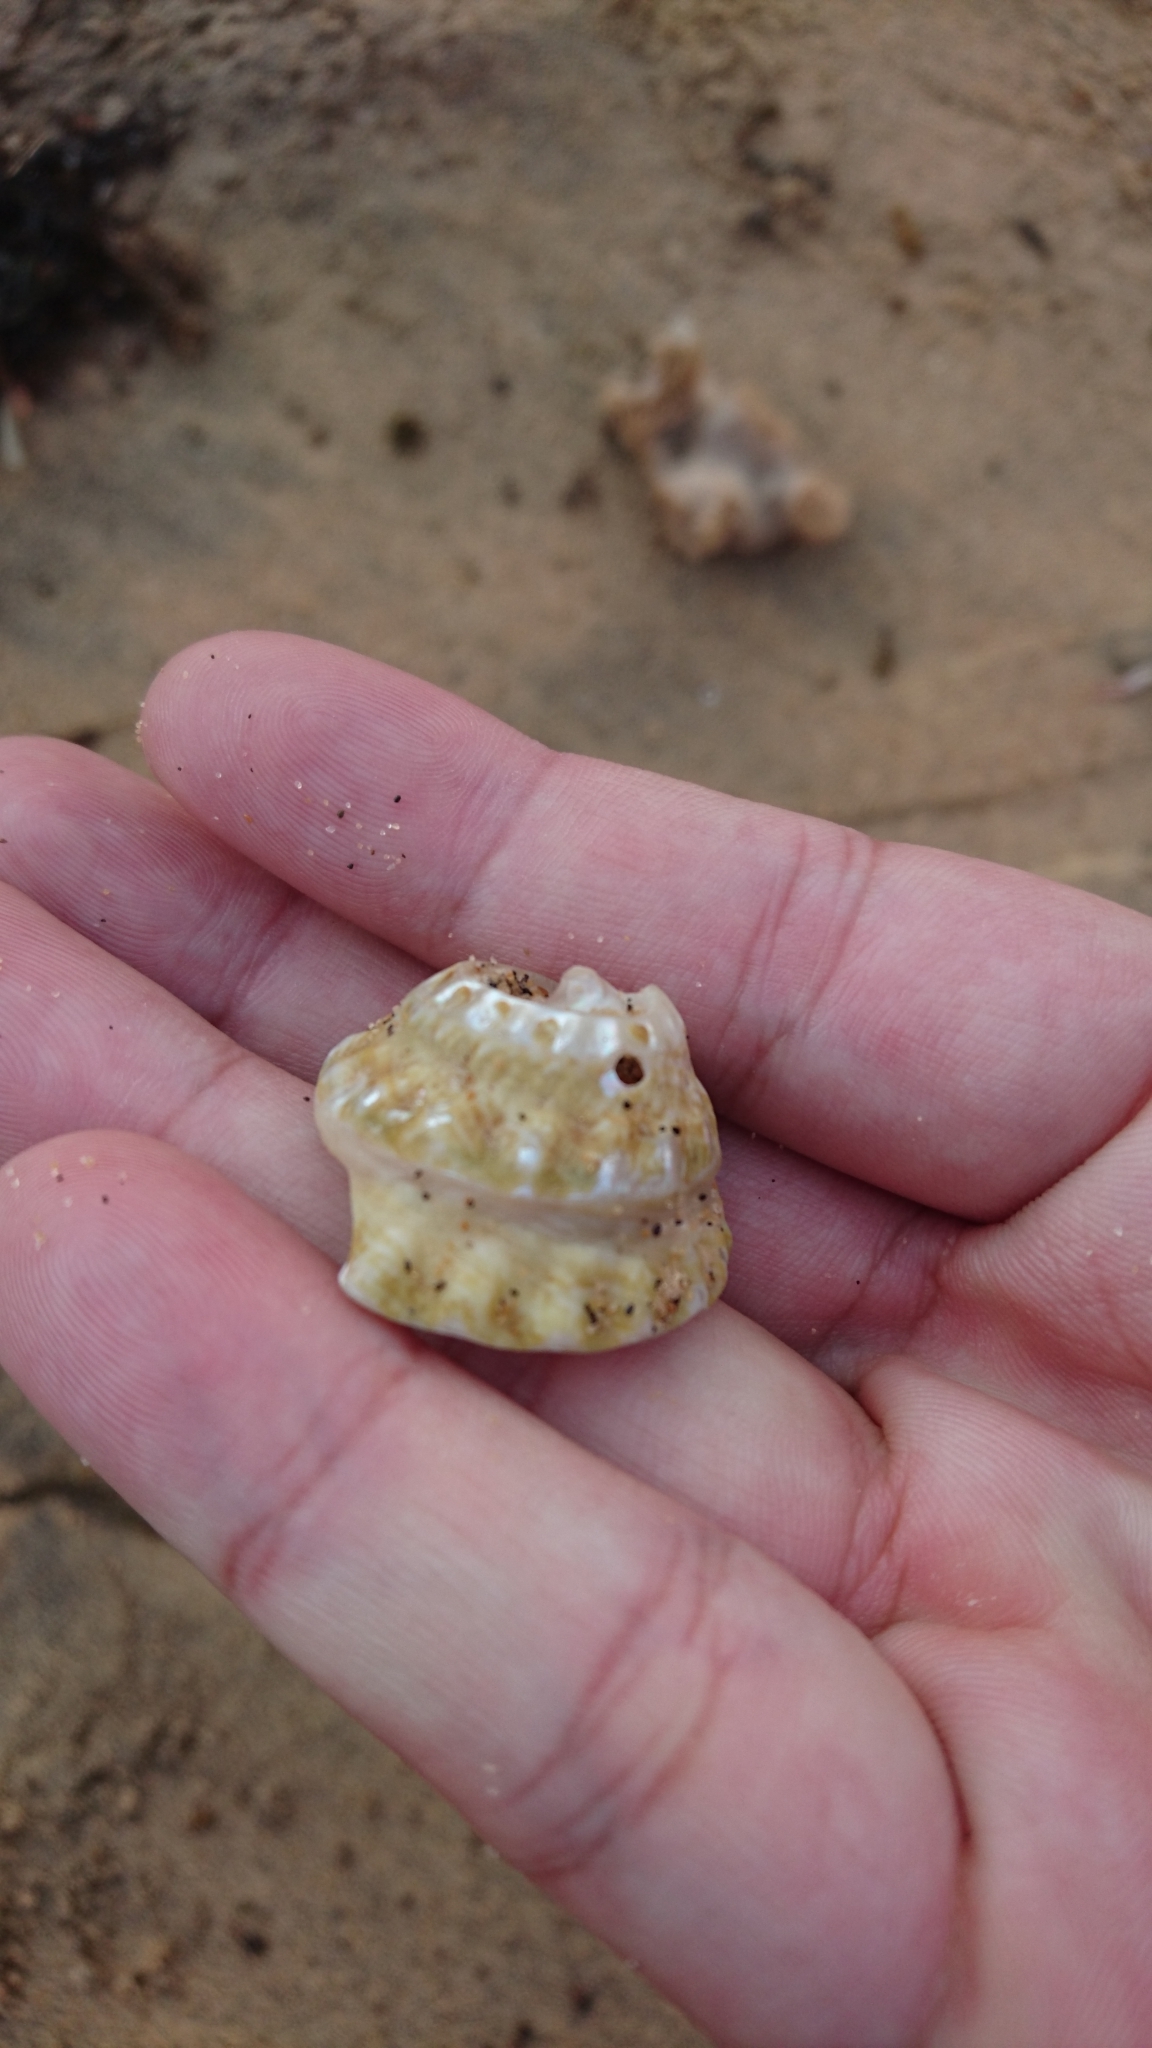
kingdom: Animalia
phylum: Mollusca
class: Gastropoda
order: Trochida
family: Turbinidae
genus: Astralium
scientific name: Astralium tentoriiforme
